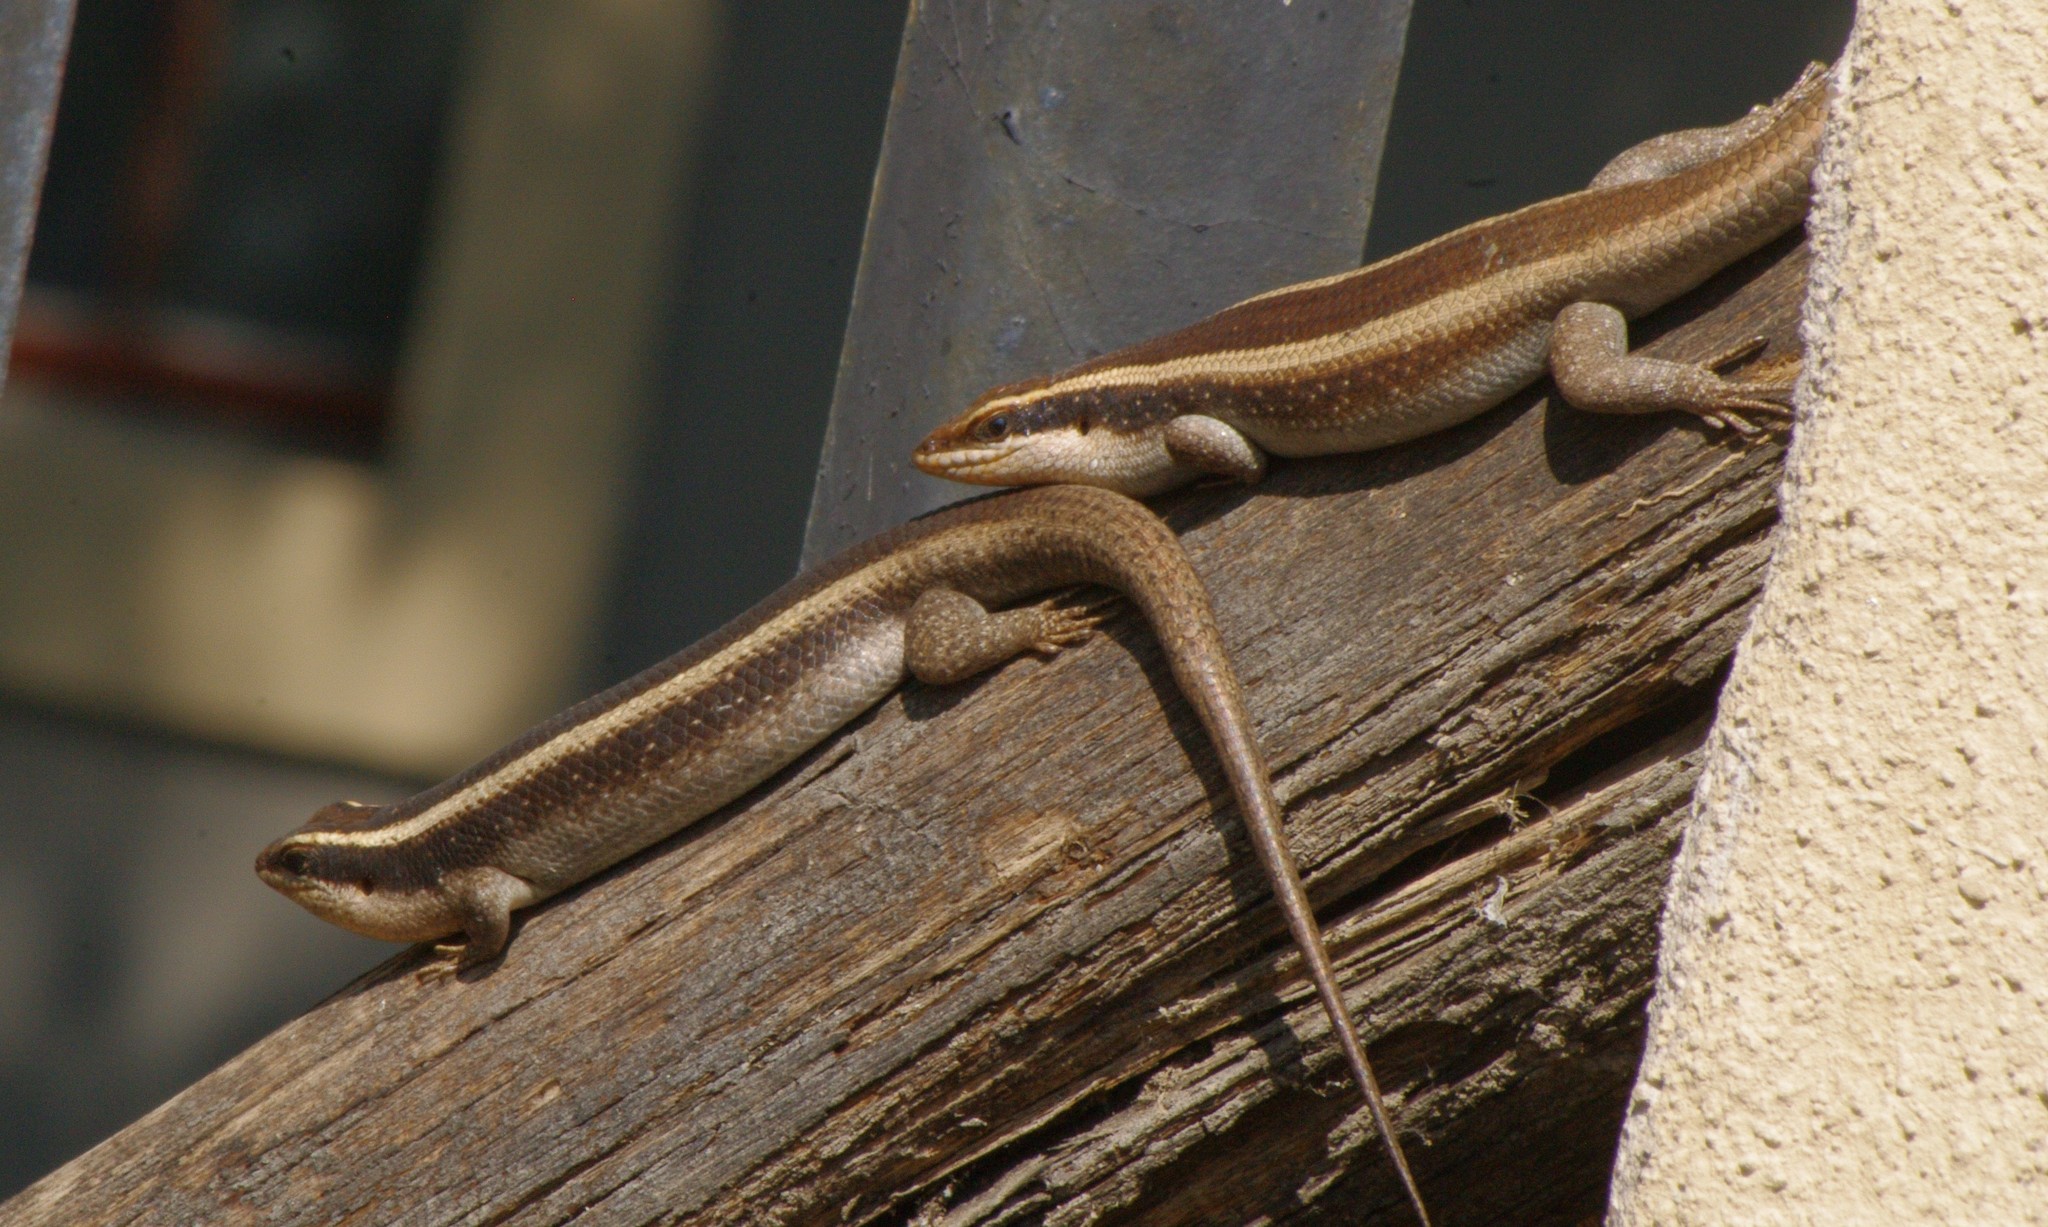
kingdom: Animalia
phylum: Chordata
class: Squamata
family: Scincidae
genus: Trachylepis
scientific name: Trachylepis striata
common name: African striped mabuya
